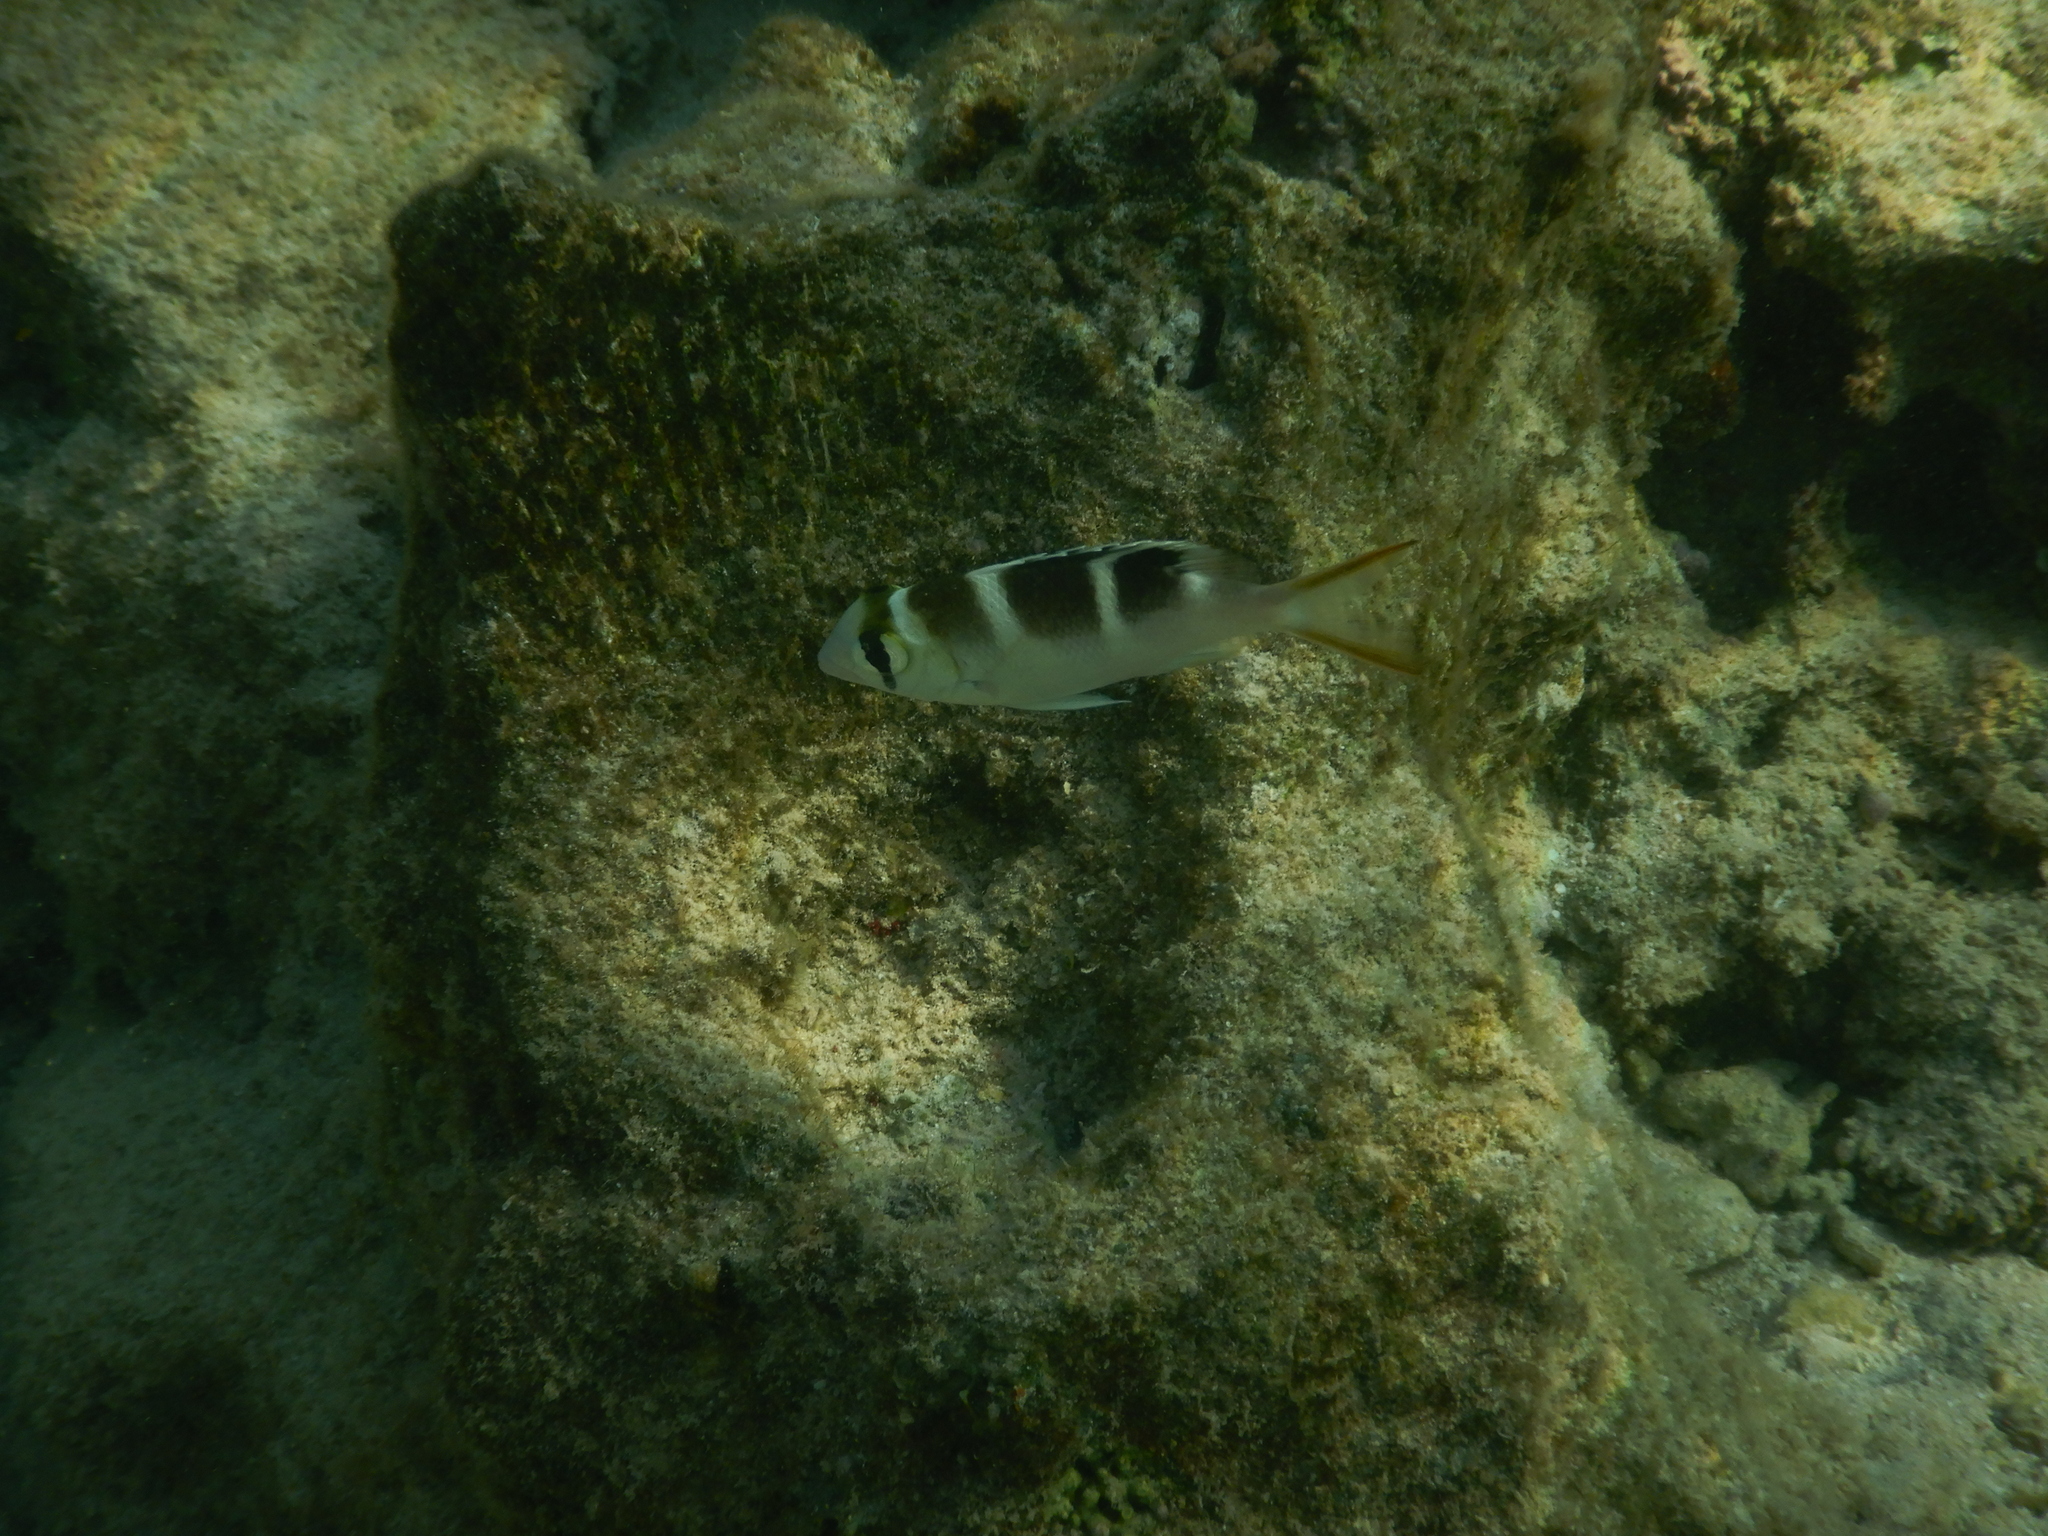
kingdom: Animalia
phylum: Chordata
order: Perciformes
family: Lethrinidae
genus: Monotaxis
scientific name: Monotaxis grandoculis
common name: Bigeye emperor
